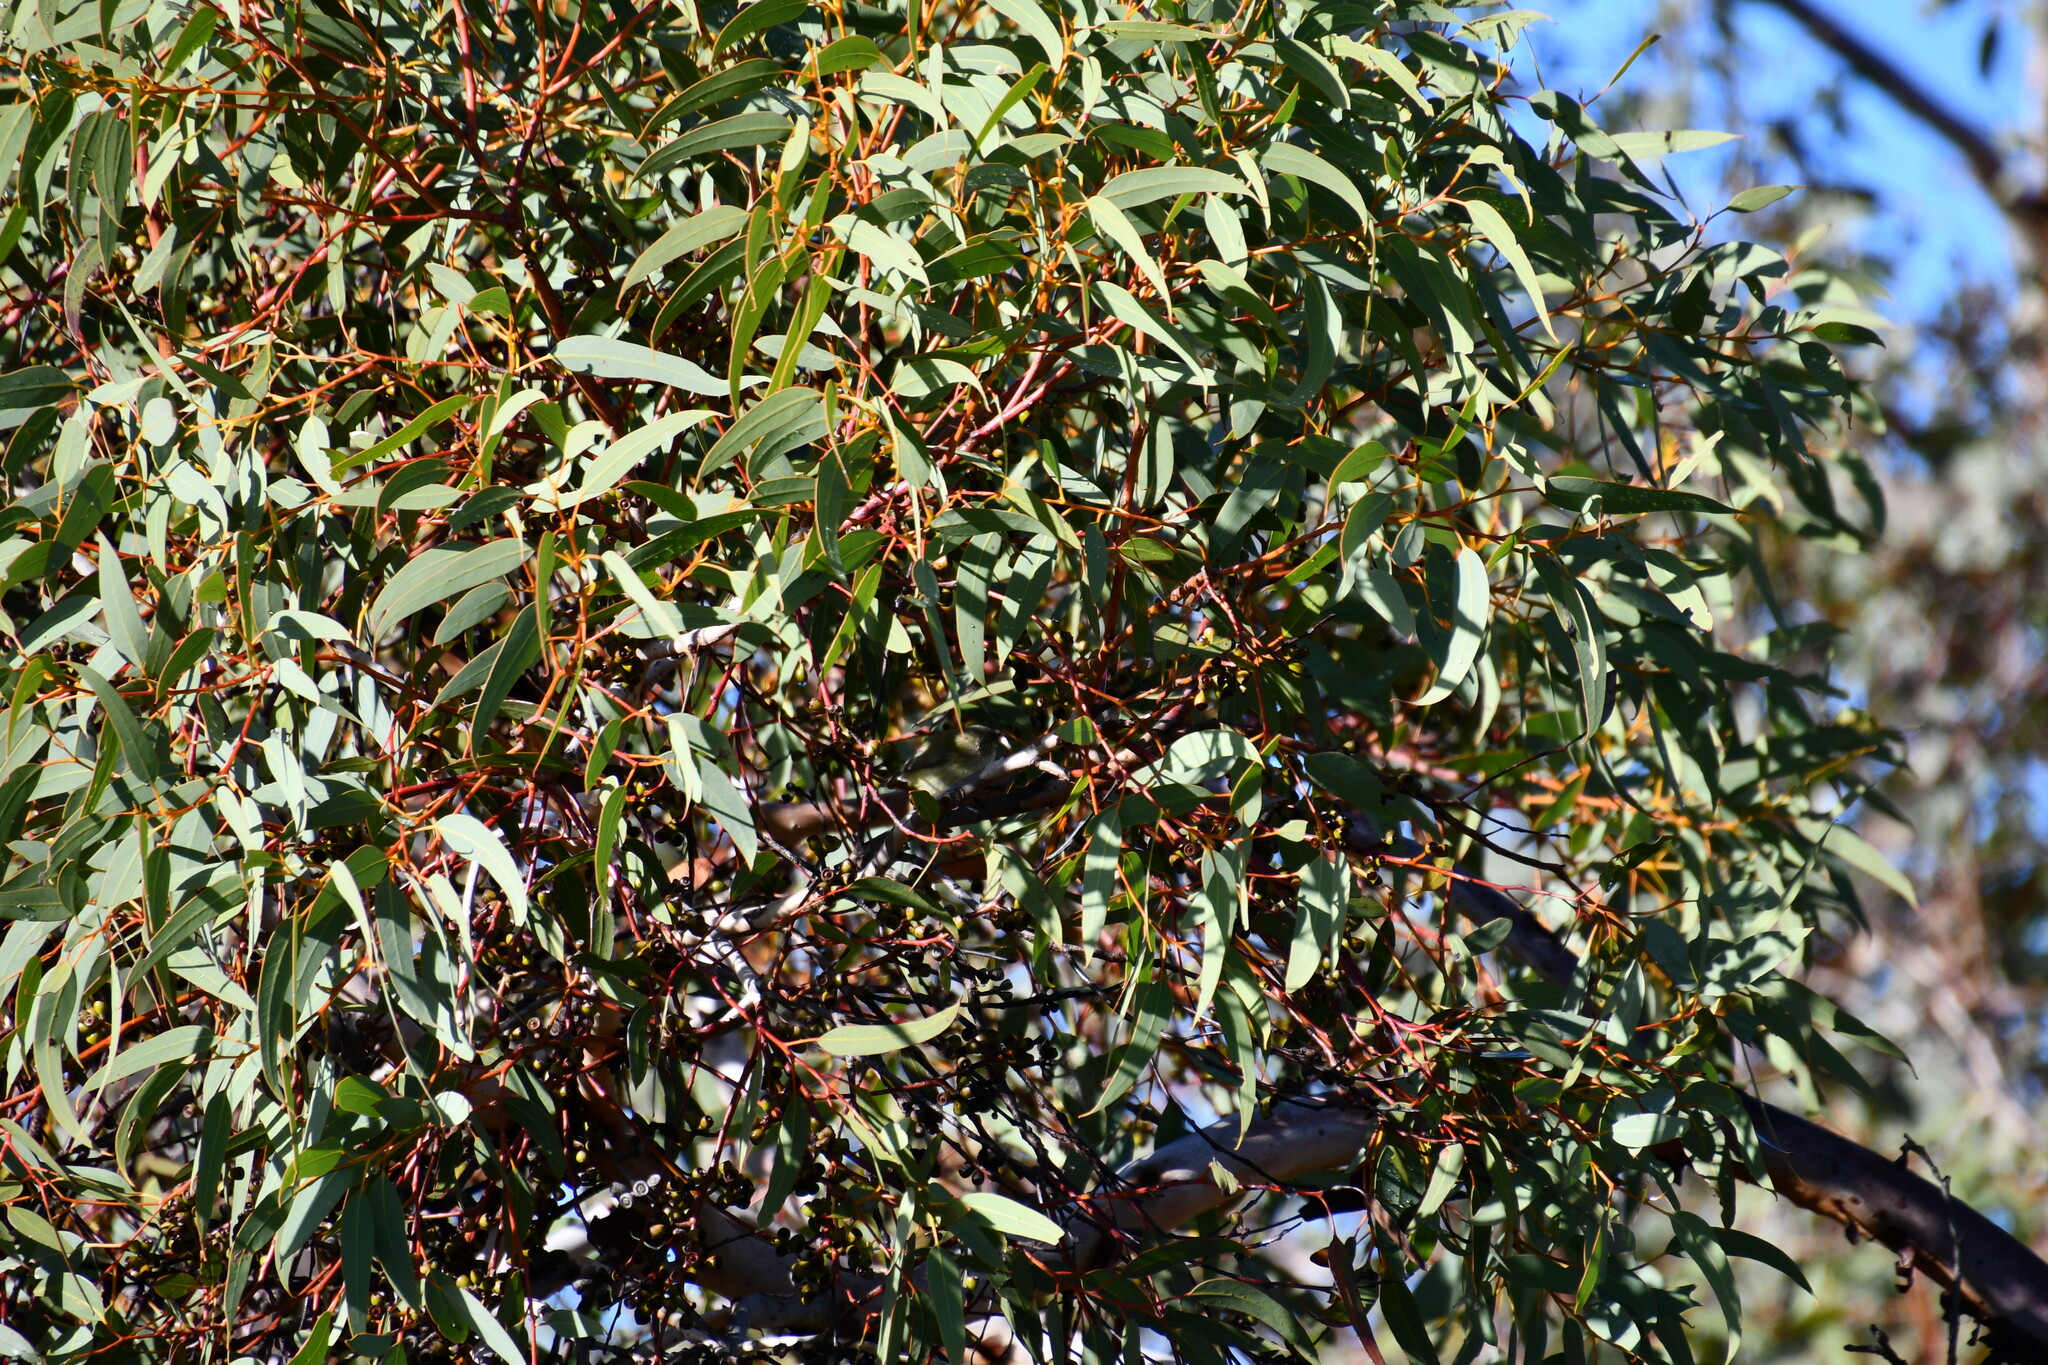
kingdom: Animalia
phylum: Chordata
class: Aves
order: Passeriformes
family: Acanthizidae
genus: Smicrornis
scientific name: Smicrornis brevirostris
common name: Weebill
